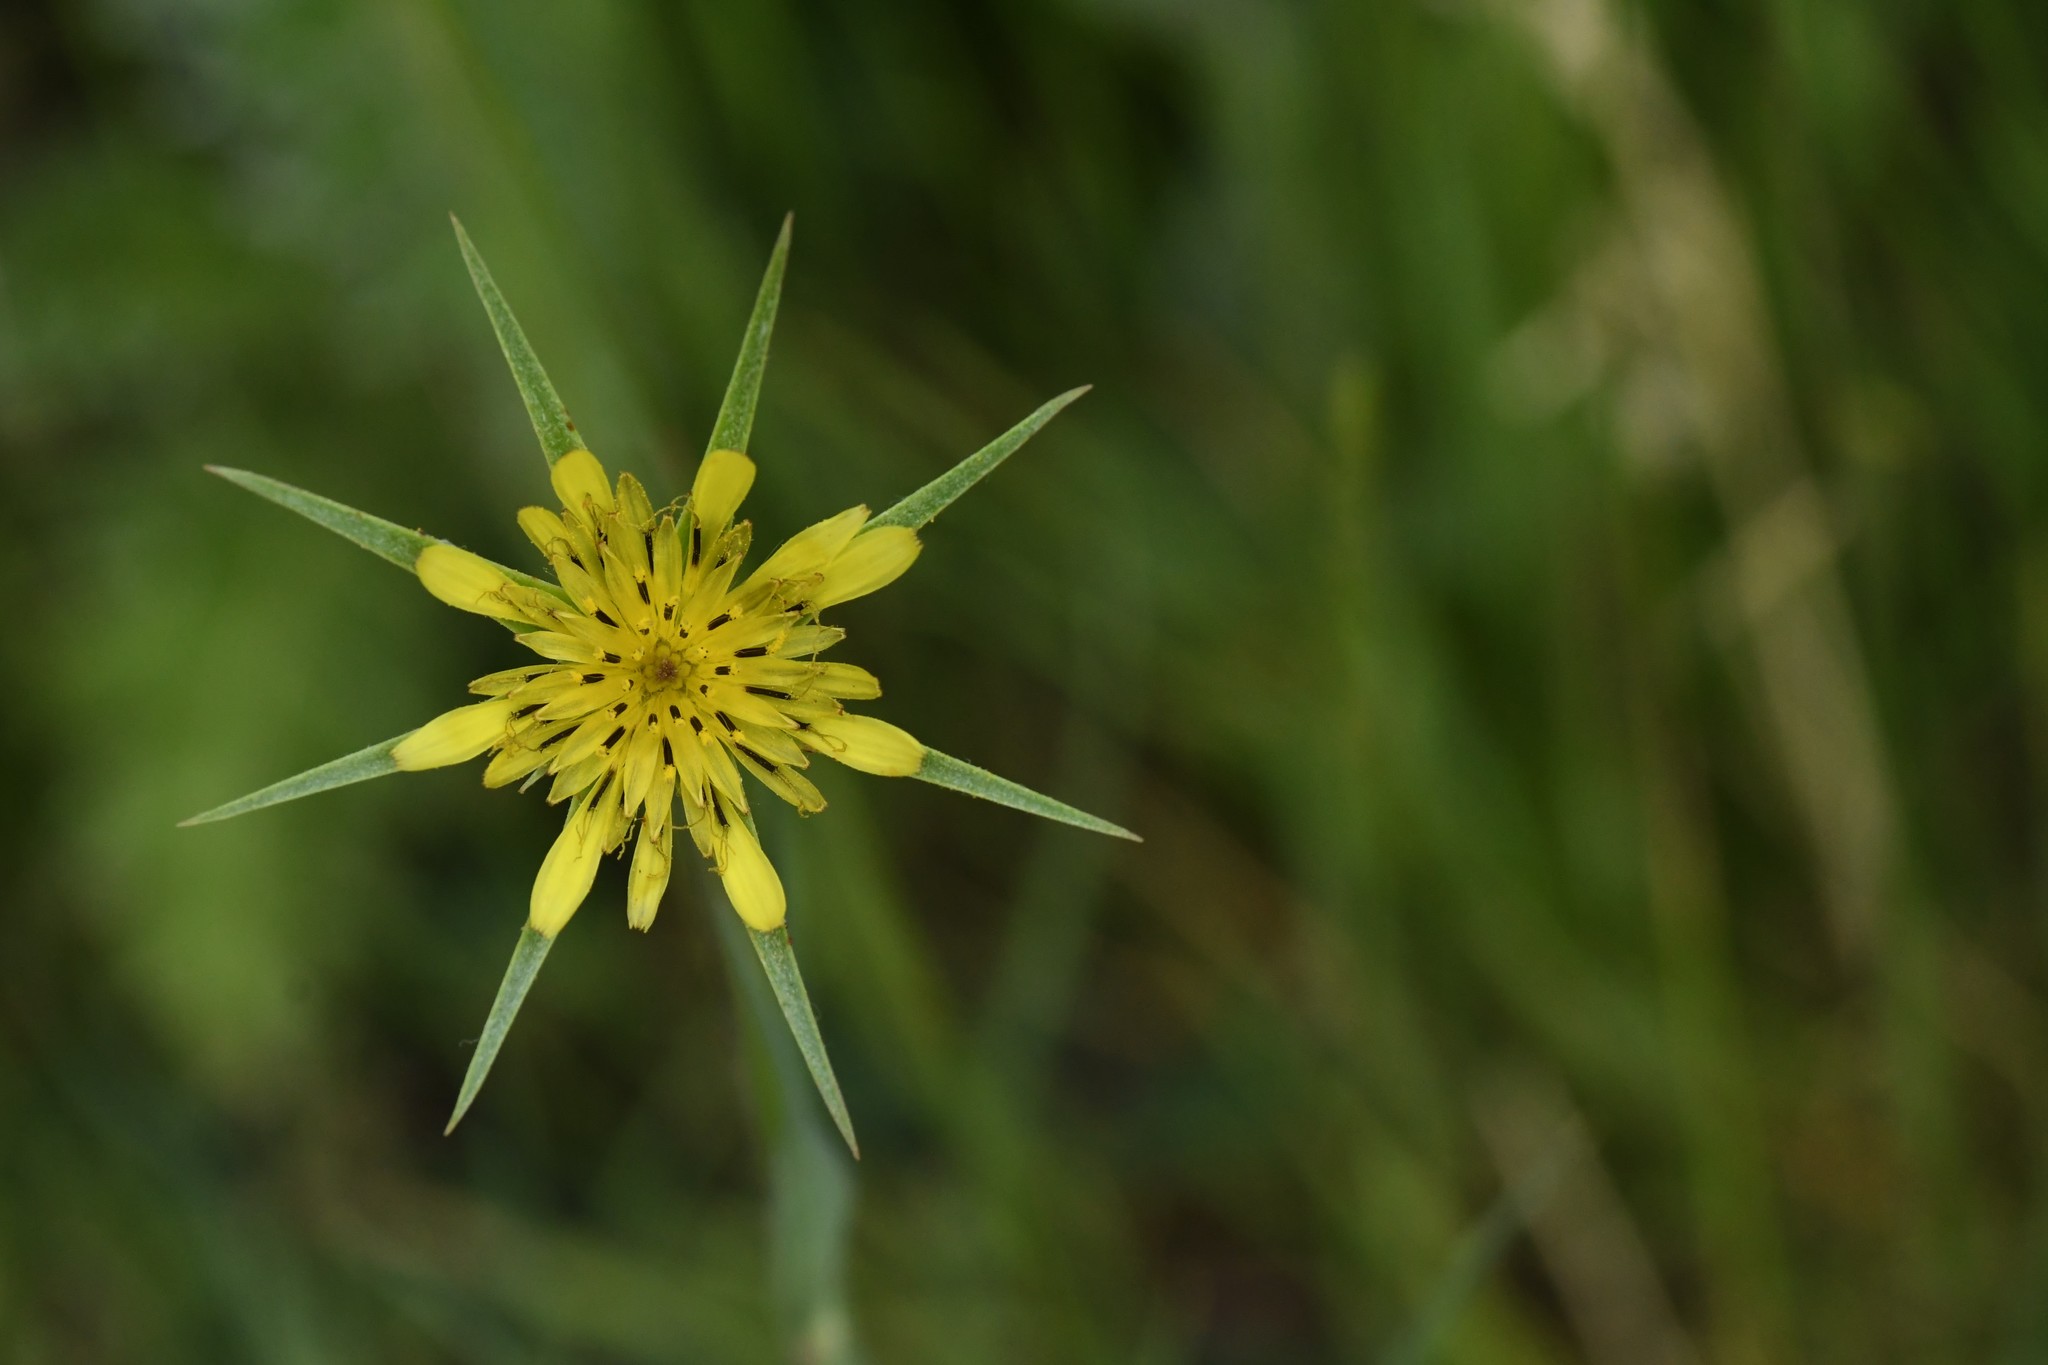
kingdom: Plantae
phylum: Tracheophyta
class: Magnoliopsida
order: Asterales
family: Asteraceae
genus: Tragopogon
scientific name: Tragopogon dubius
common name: Yellow salsify
